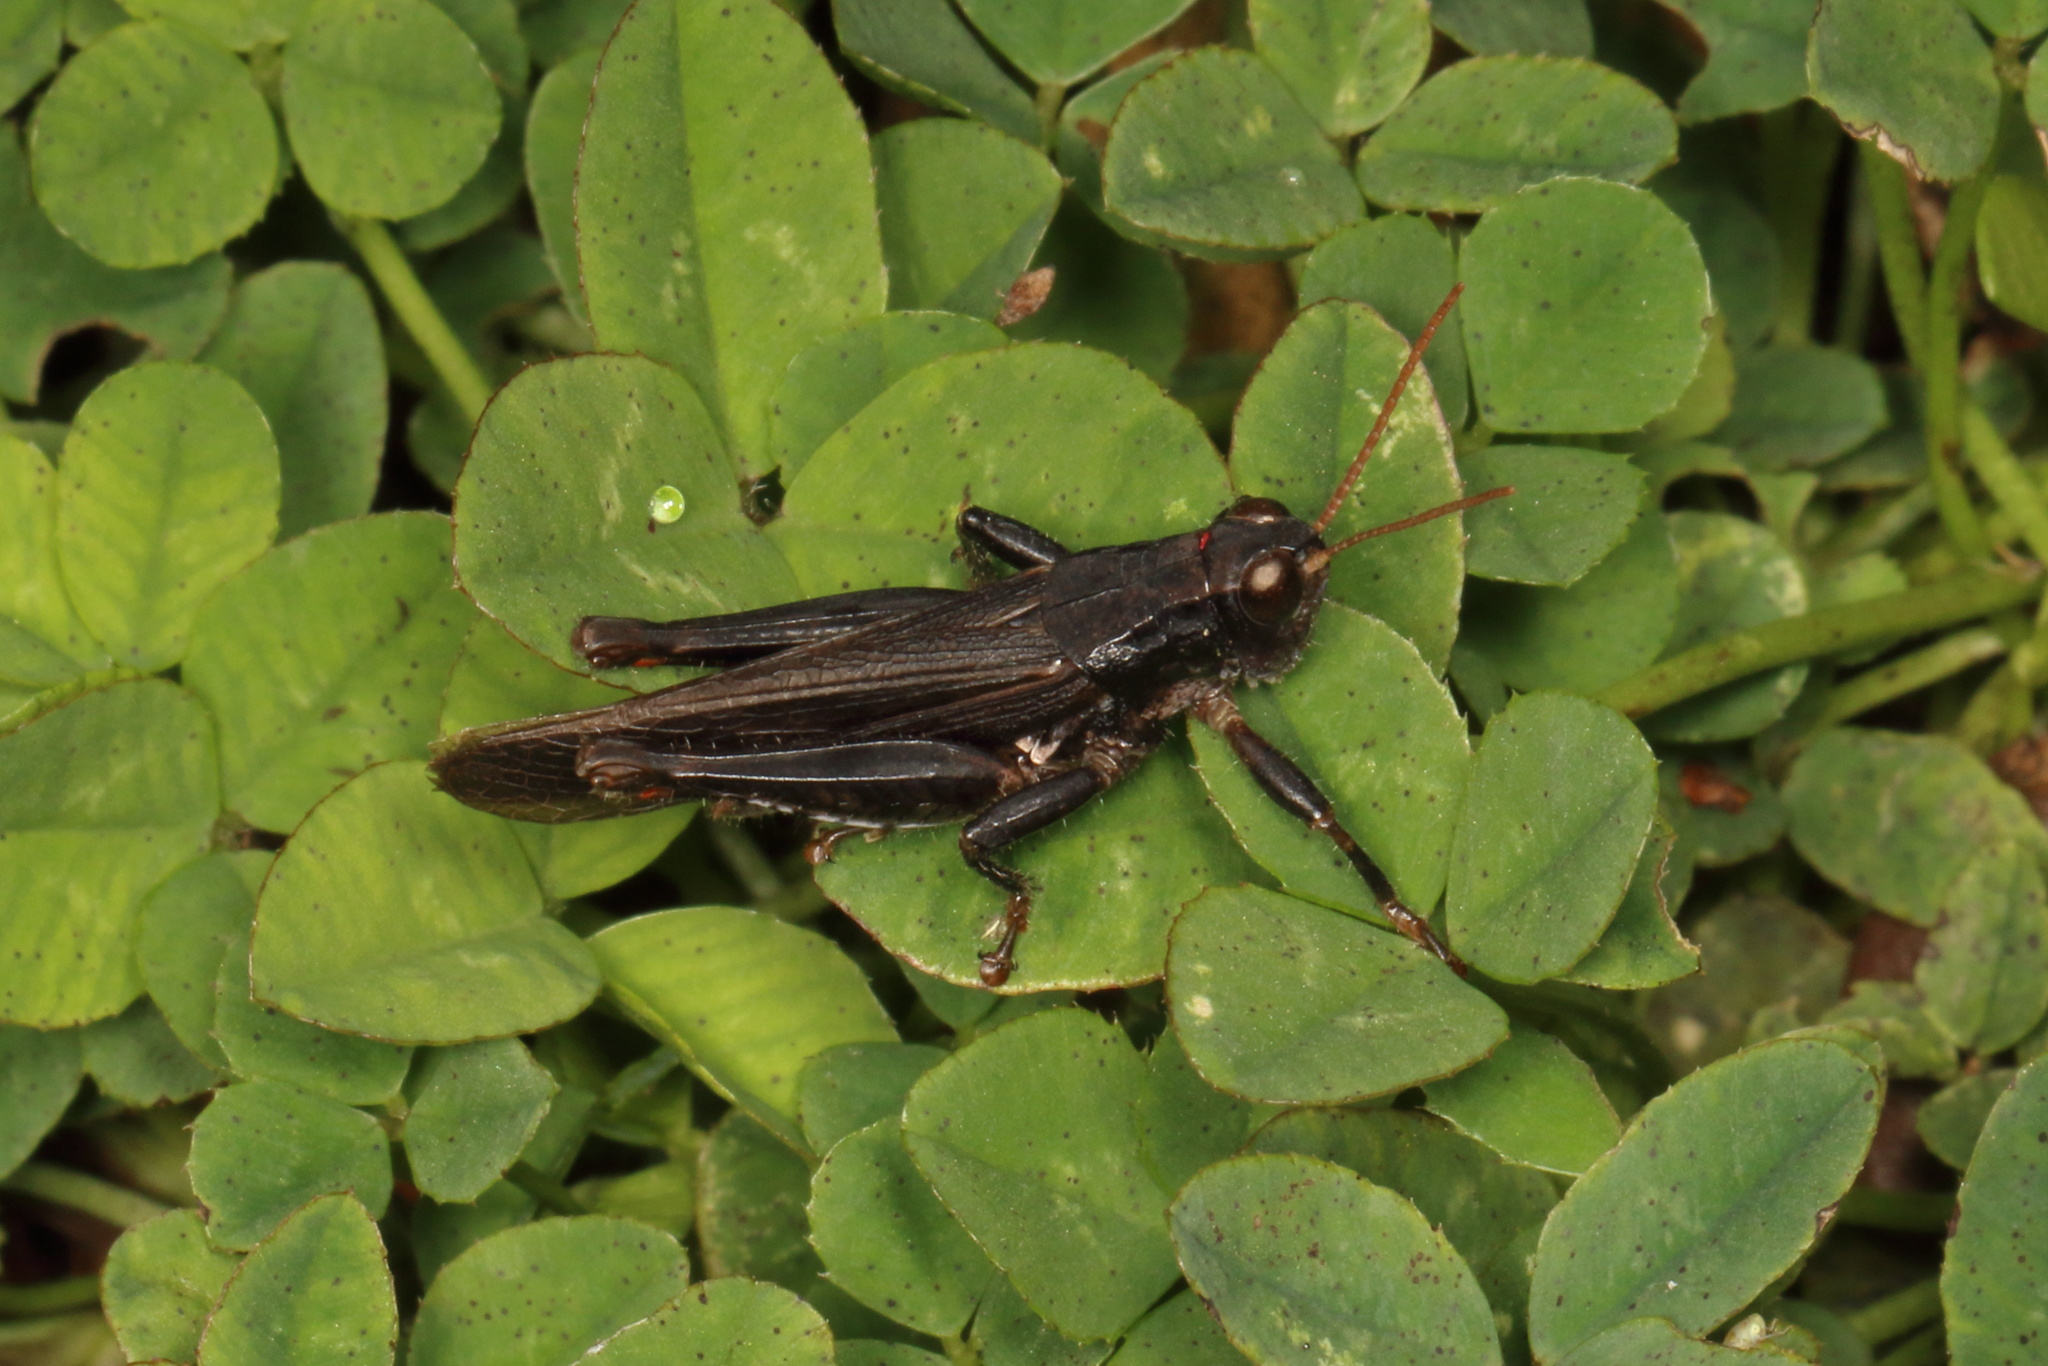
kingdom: Animalia
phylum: Arthropoda
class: Insecta
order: Orthoptera
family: Acrididae
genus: Phaulacridium
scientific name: Phaulacridium marginale
